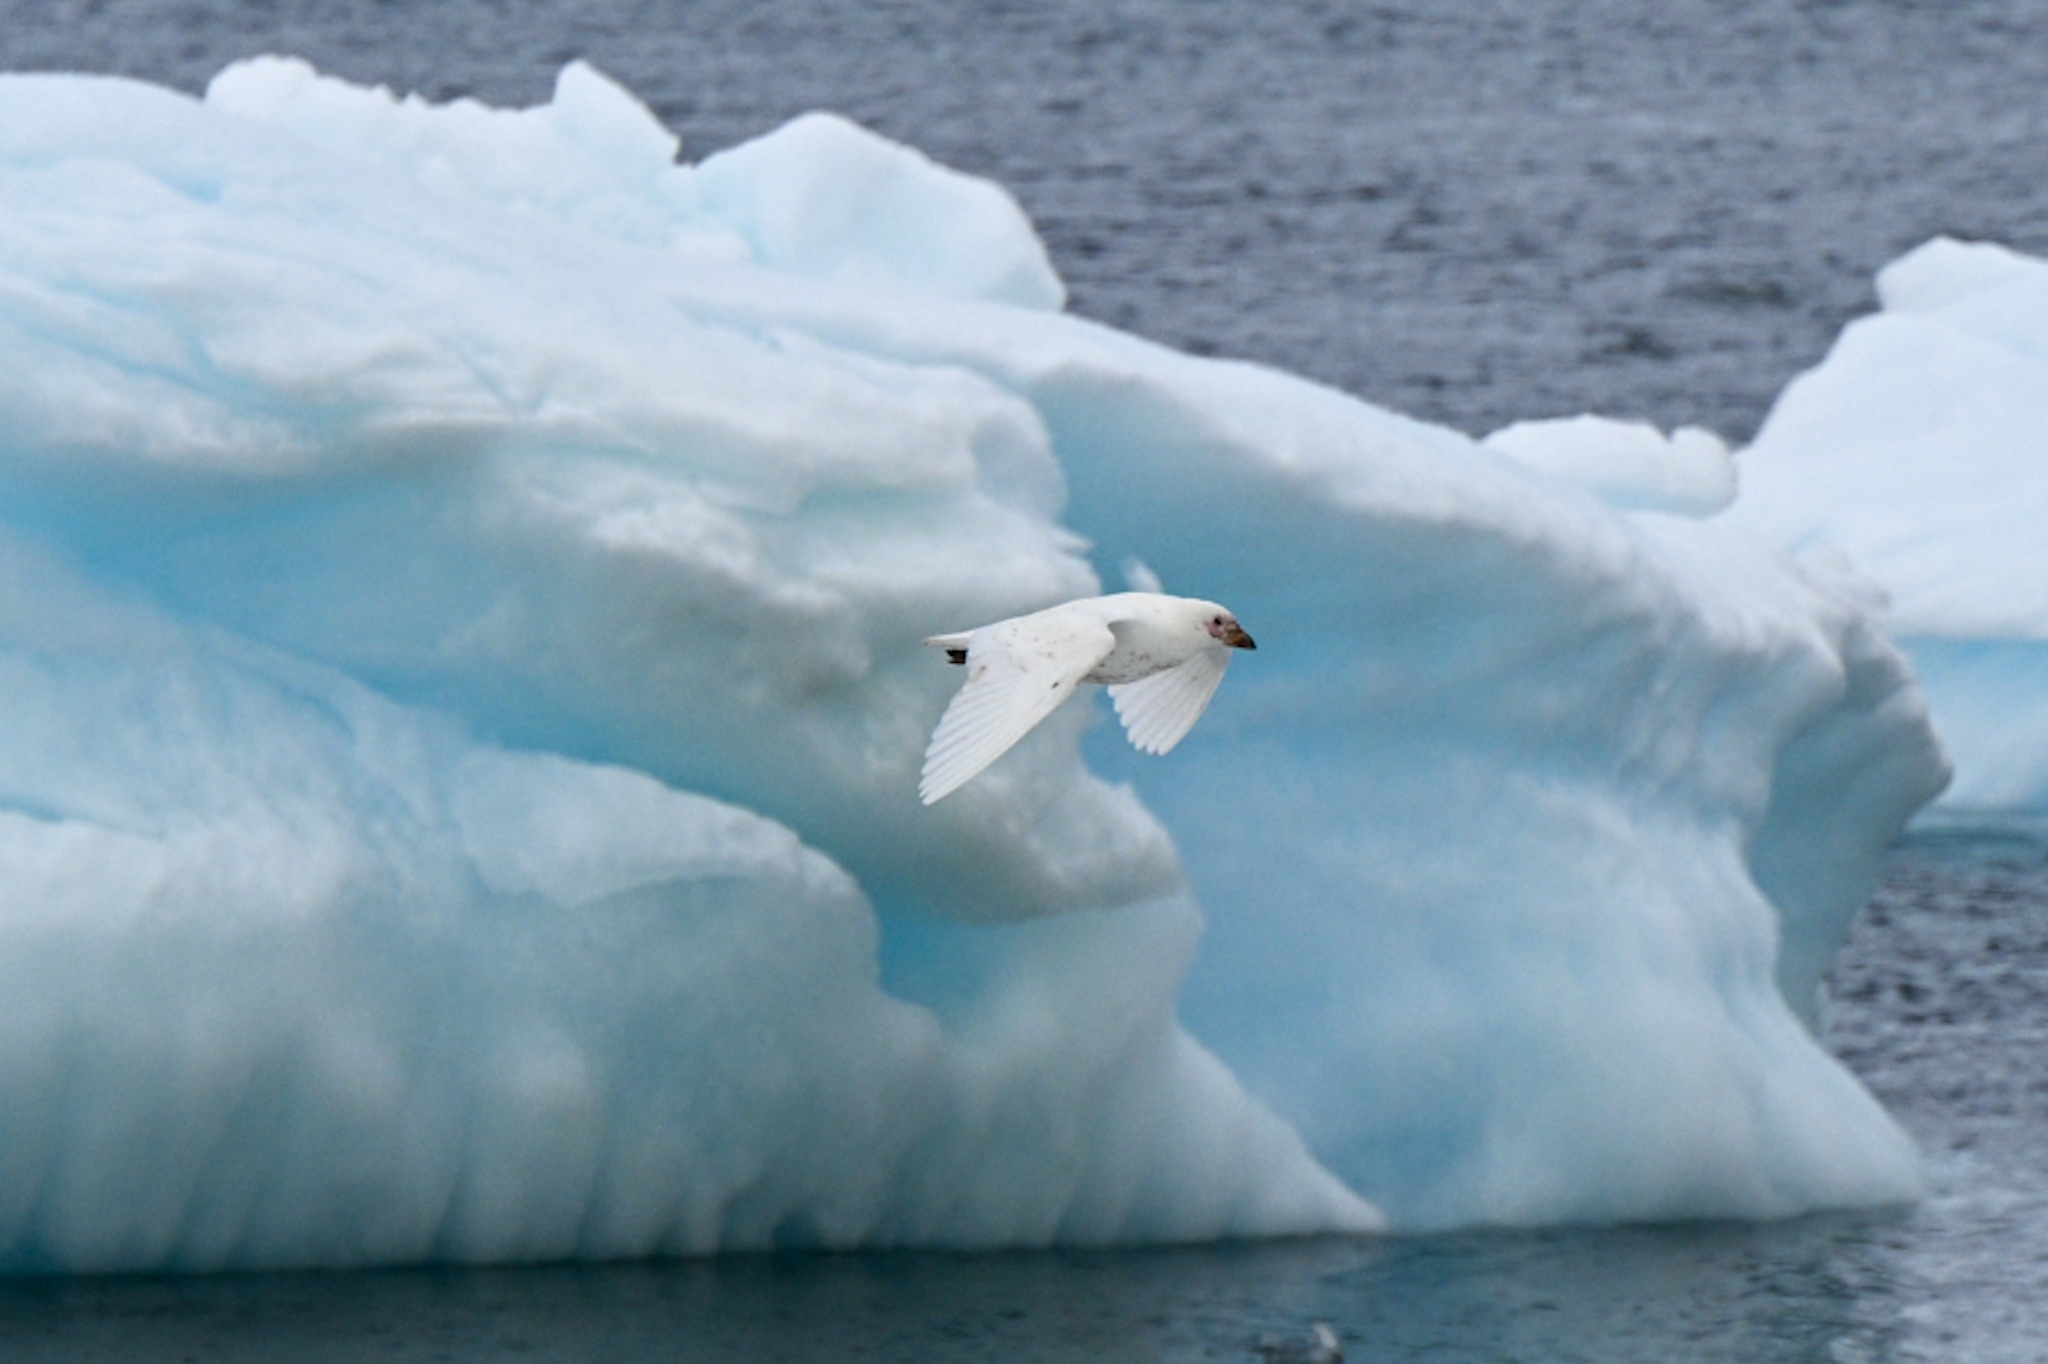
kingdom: Animalia
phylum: Chordata
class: Aves
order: Charadriiformes
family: Chionidae
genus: Chionis
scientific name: Chionis albus
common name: Snowy sheathbill
